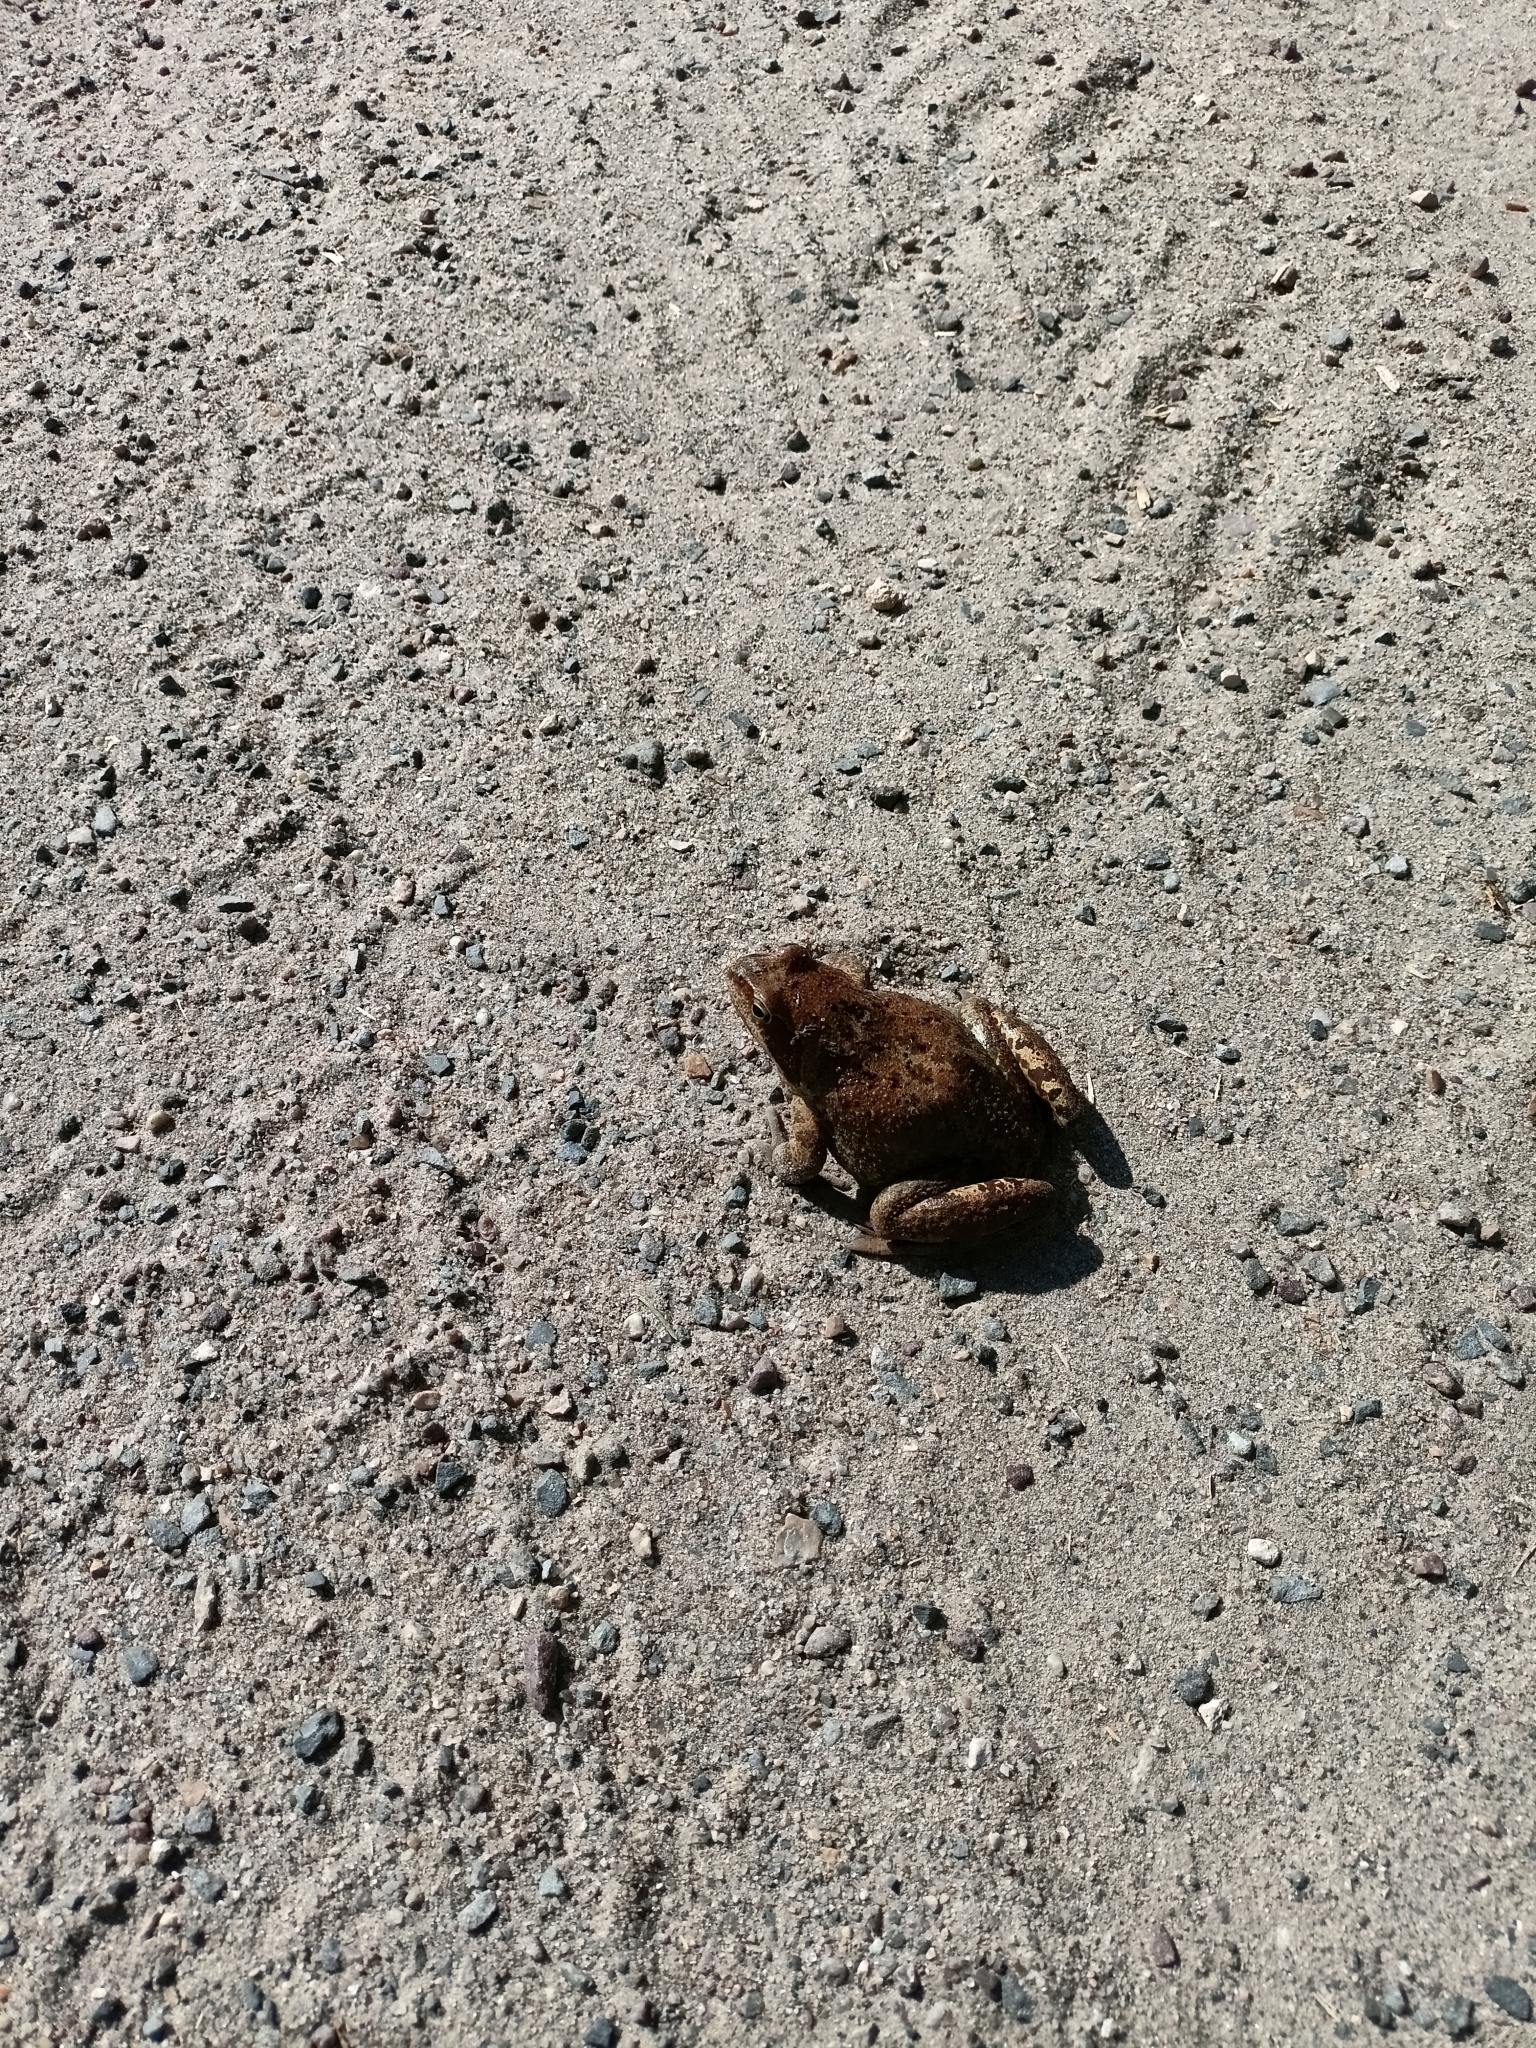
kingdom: Animalia
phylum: Chordata
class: Amphibia
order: Anura
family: Ranidae
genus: Rana
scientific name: Rana temporaria
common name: Common frog
